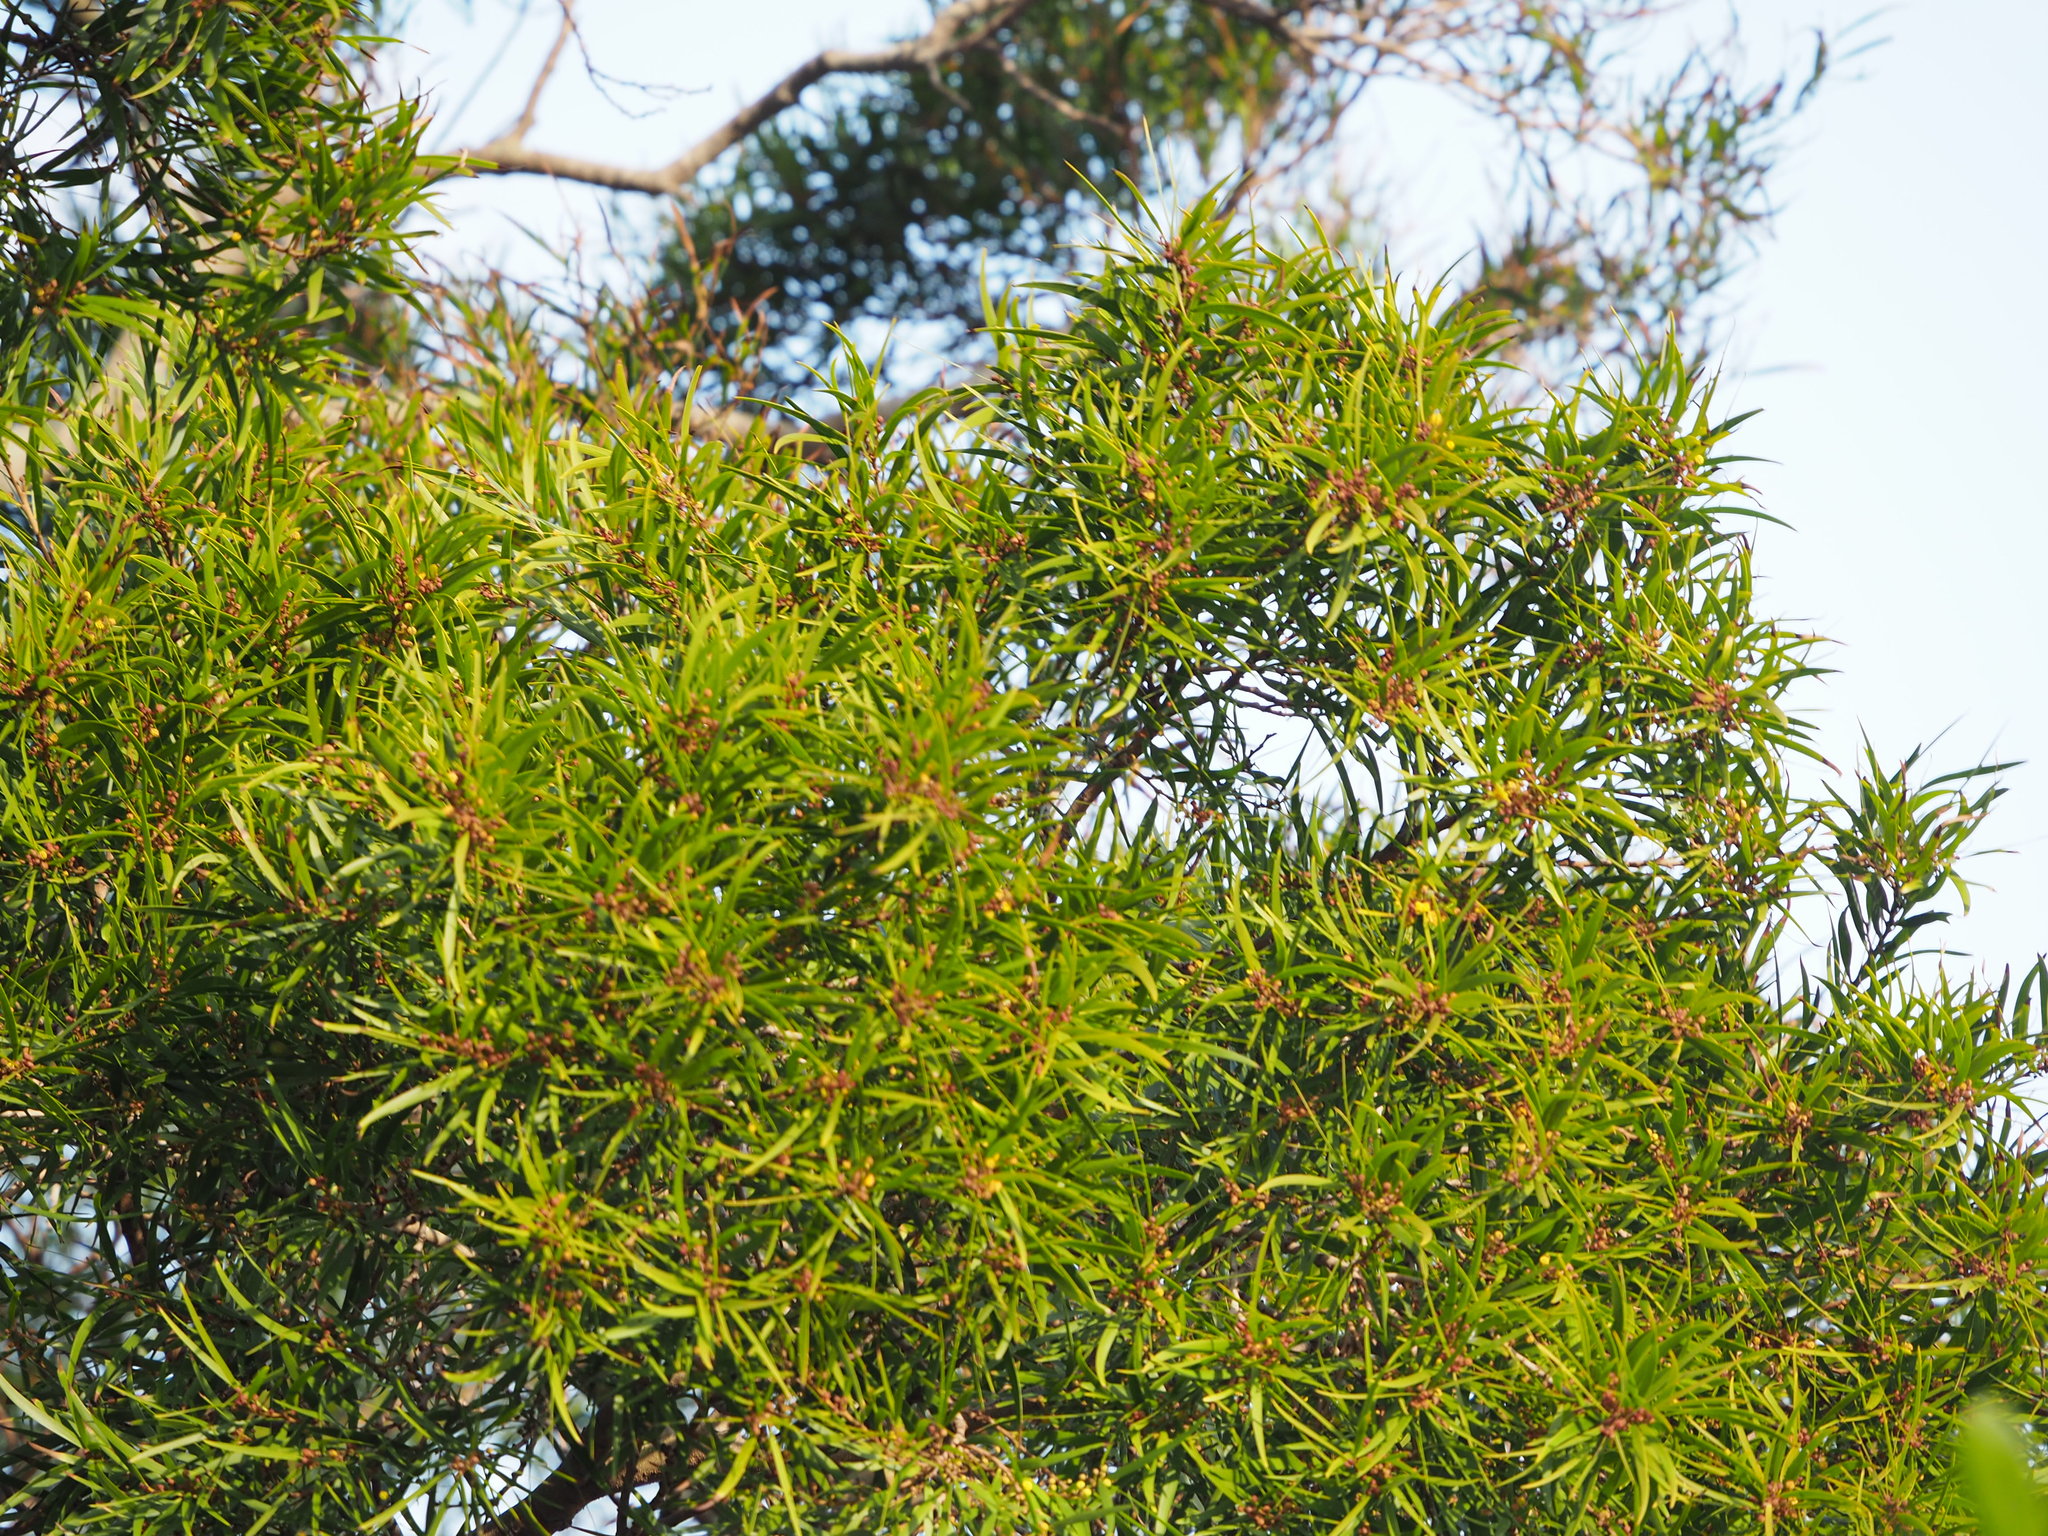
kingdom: Plantae
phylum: Tracheophyta
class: Magnoliopsida
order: Fabales
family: Fabaceae
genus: Acacia
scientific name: Acacia confusa
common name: Formosan koa
